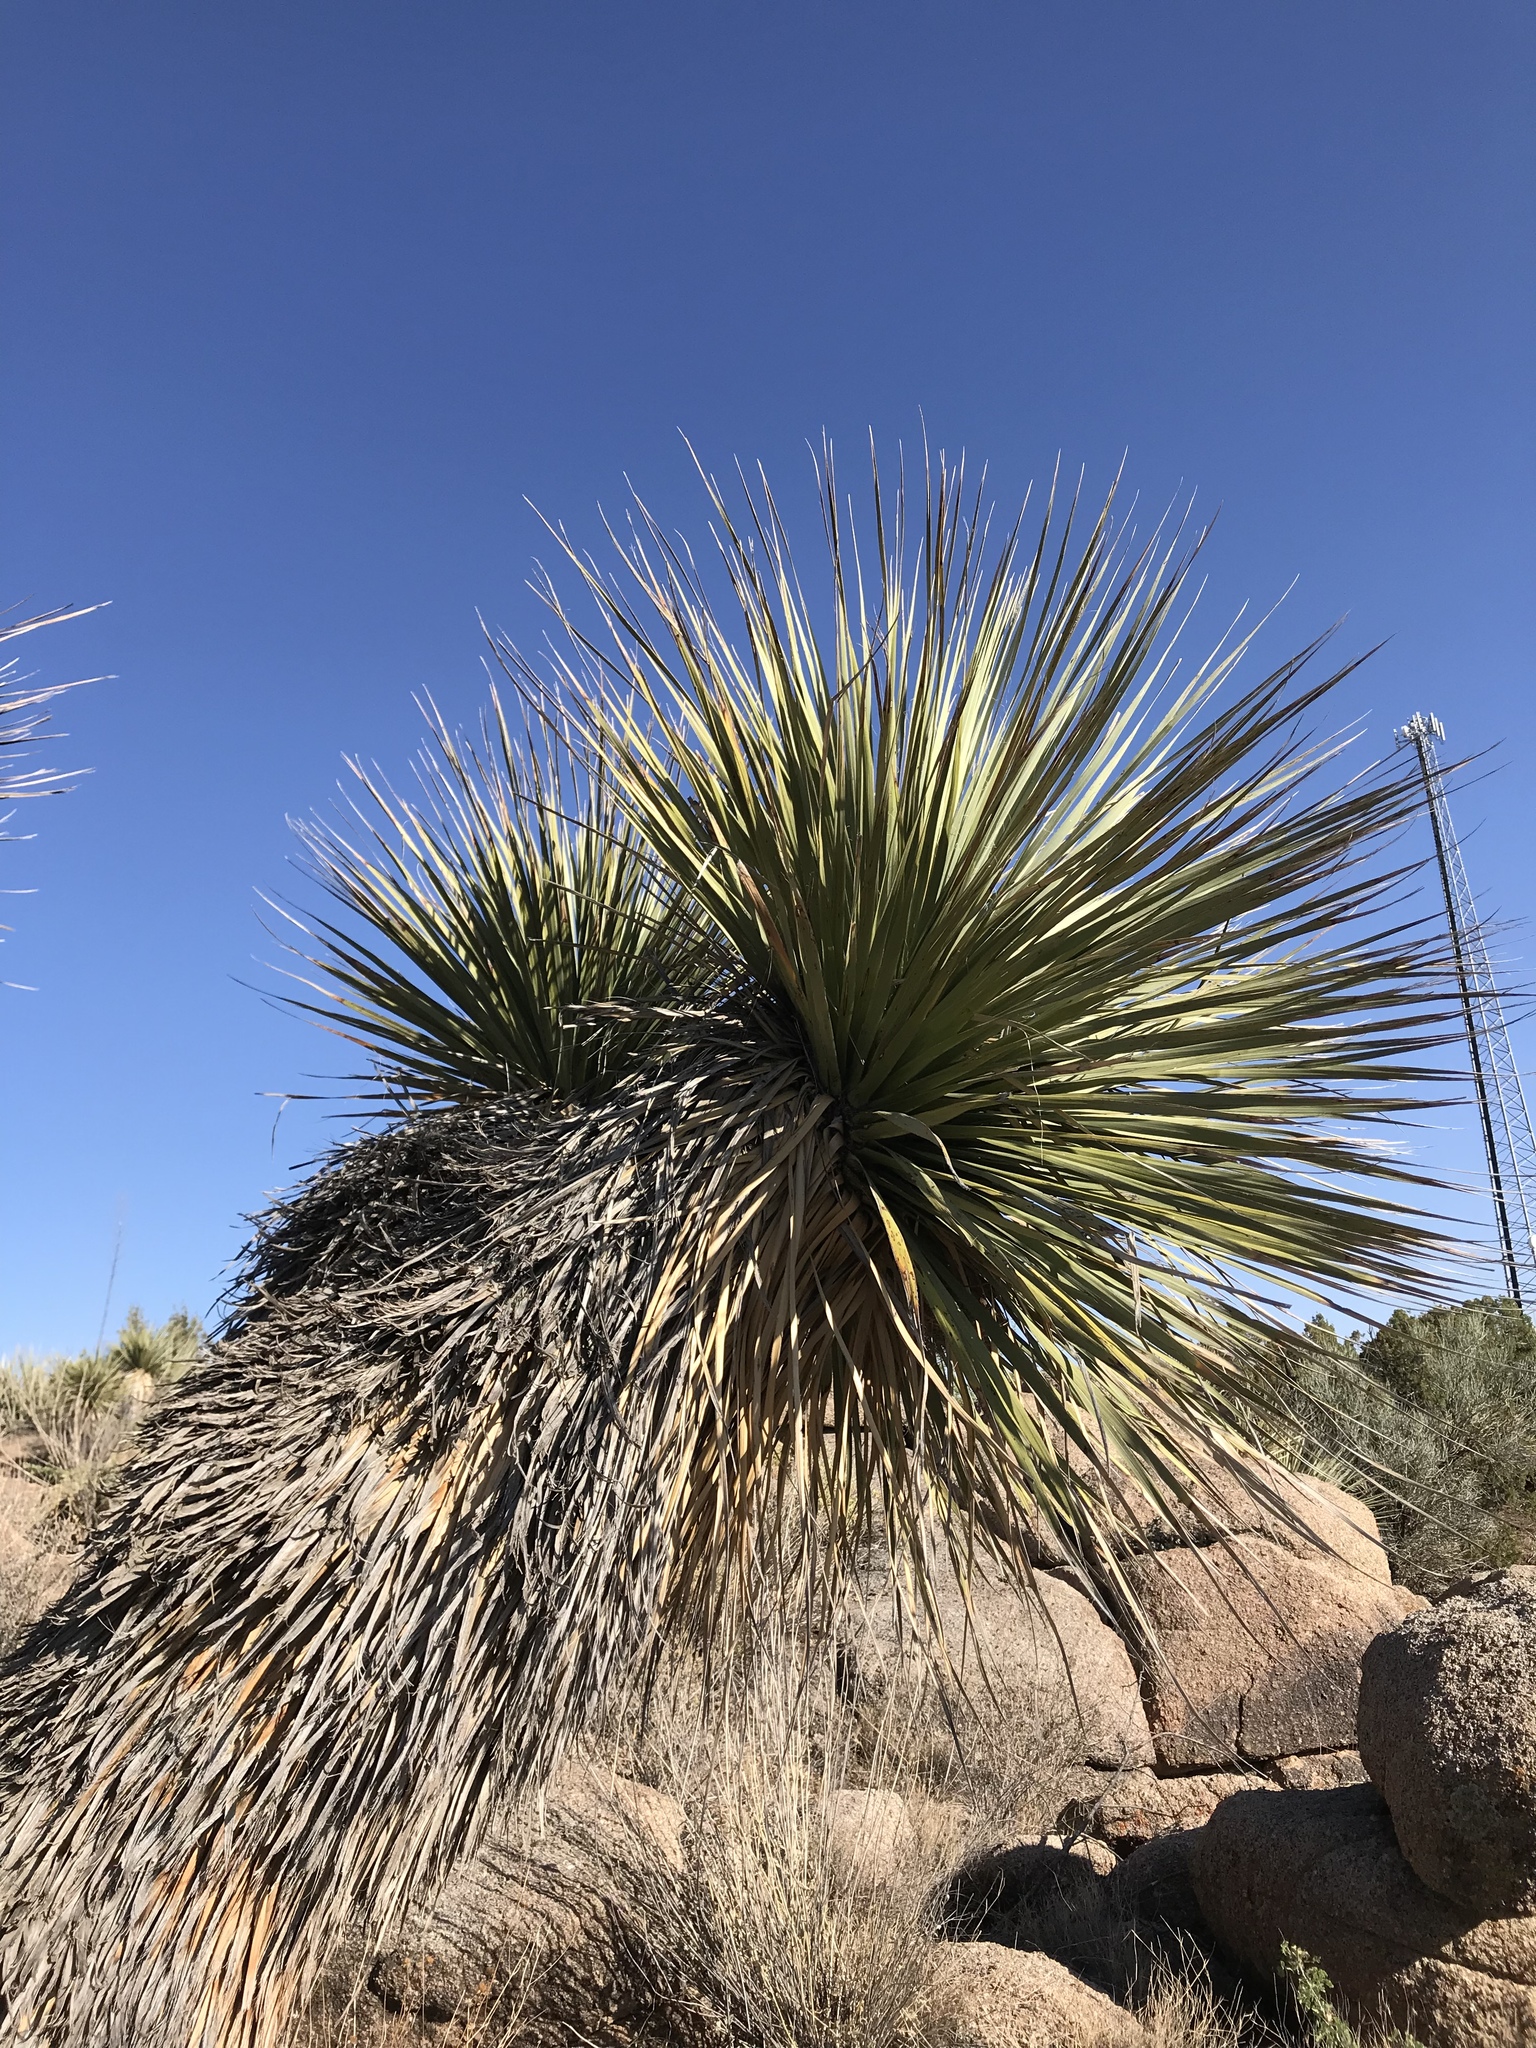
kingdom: Plantae
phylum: Tracheophyta
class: Liliopsida
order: Asparagales
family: Asparagaceae
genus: Nolina
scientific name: Nolina bigelovii
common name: Bigelow bear-grass
